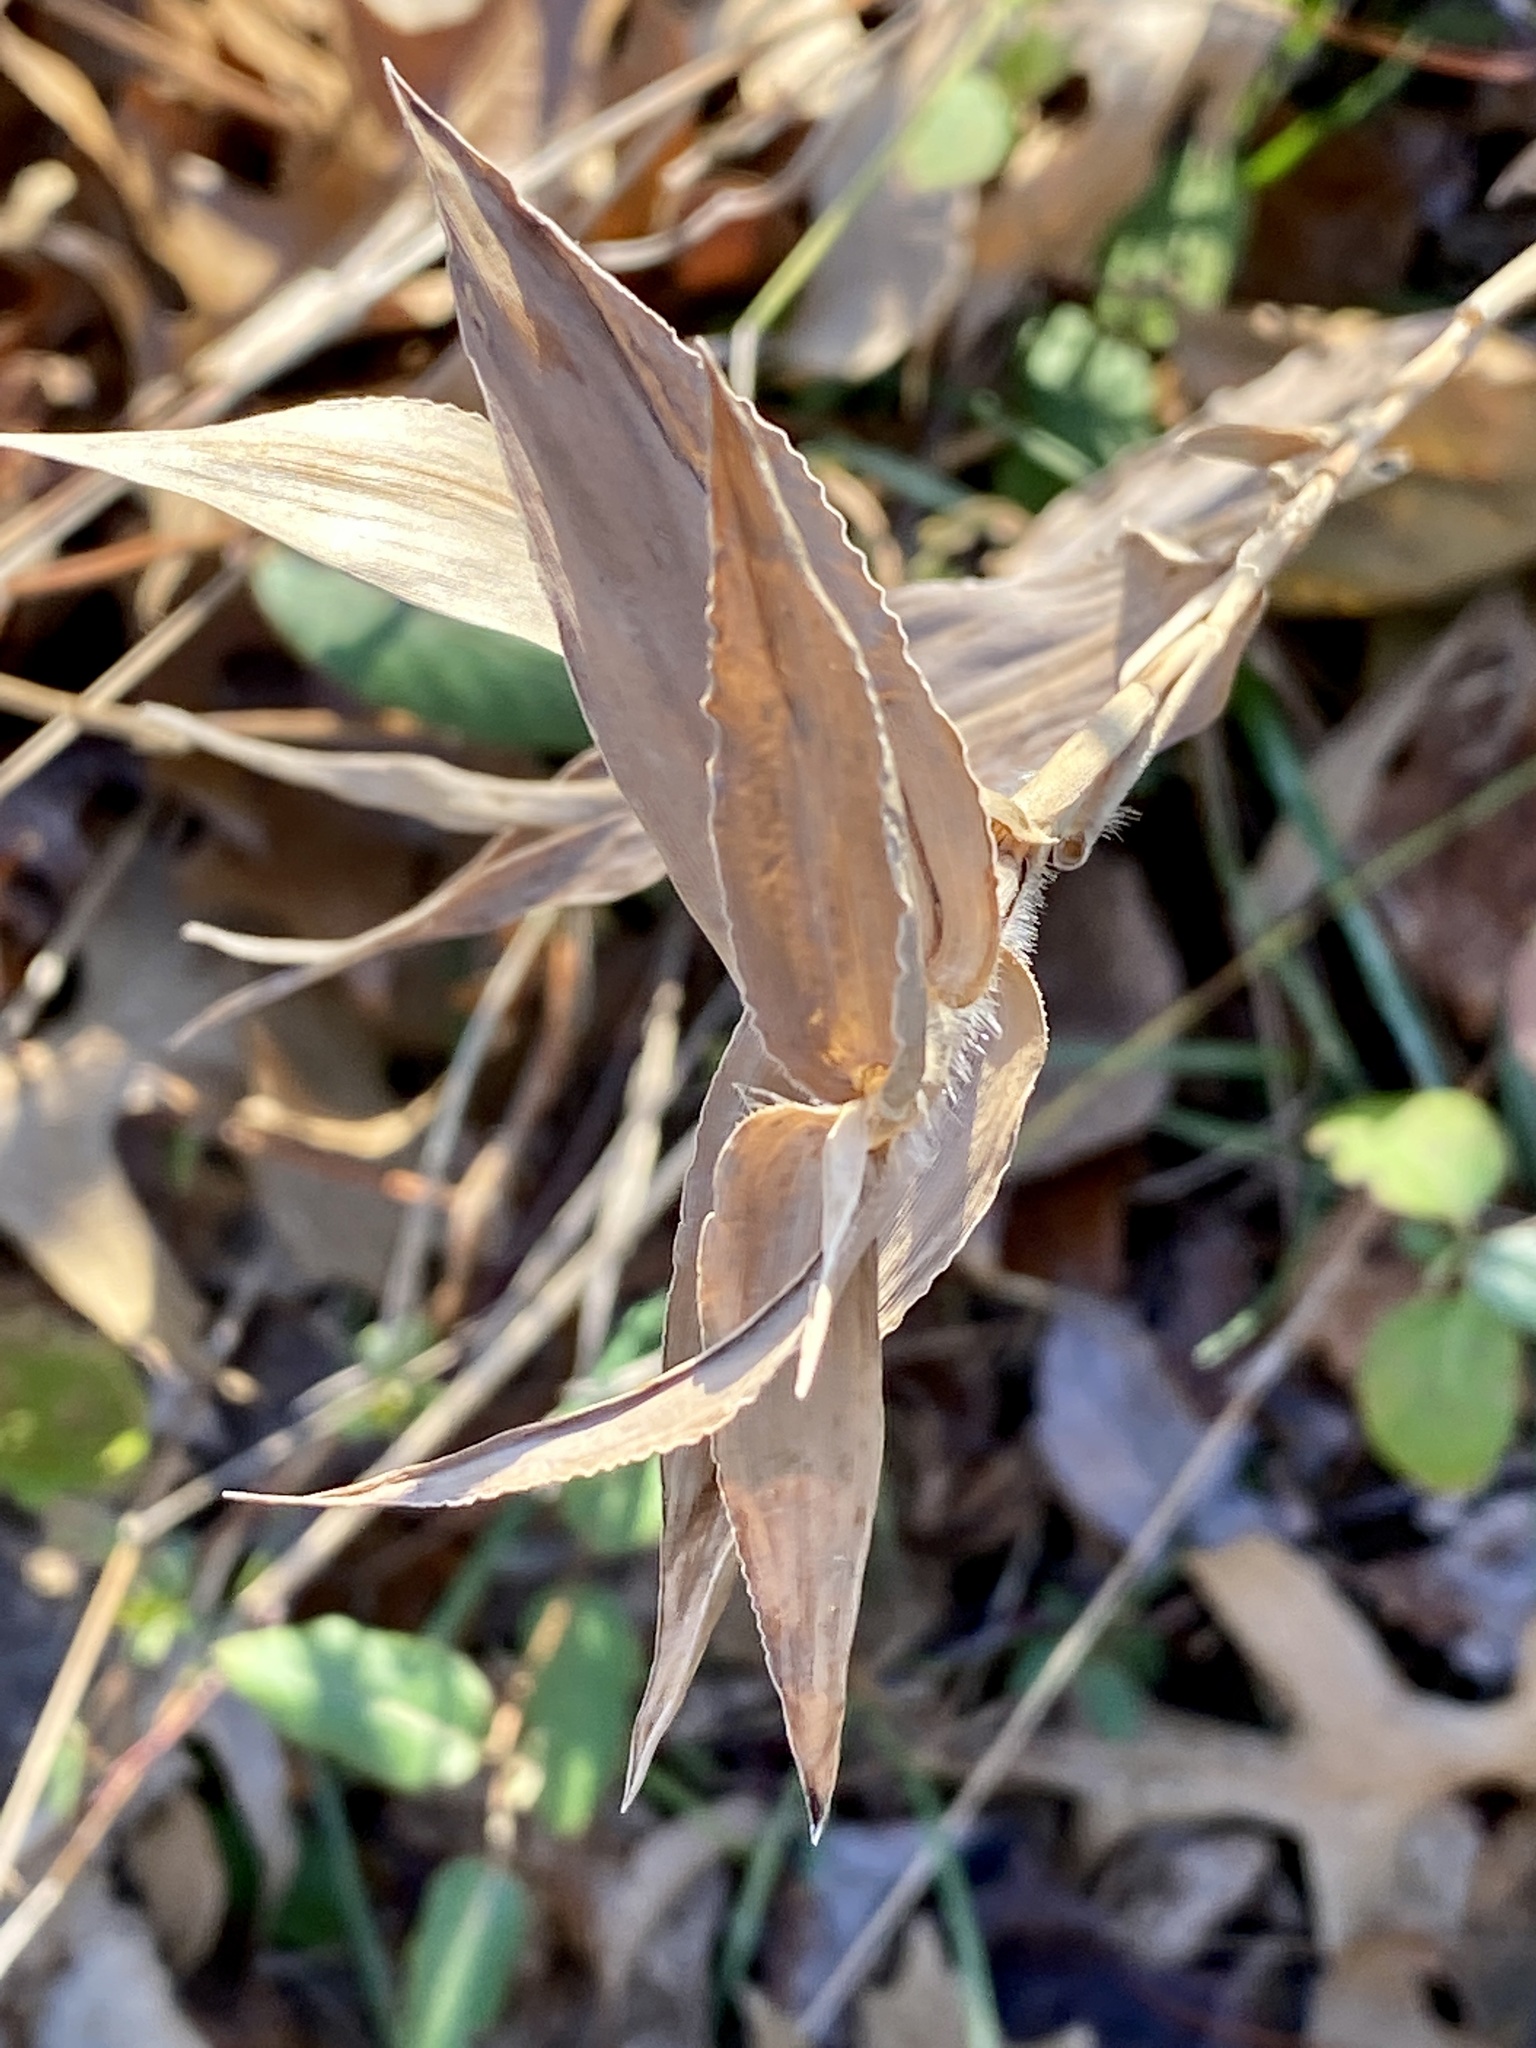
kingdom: Plantae
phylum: Tracheophyta
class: Liliopsida
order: Poales
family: Poaceae
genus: Dichanthelium
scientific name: Dichanthelium clandestinum
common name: Deer-tongue grass
